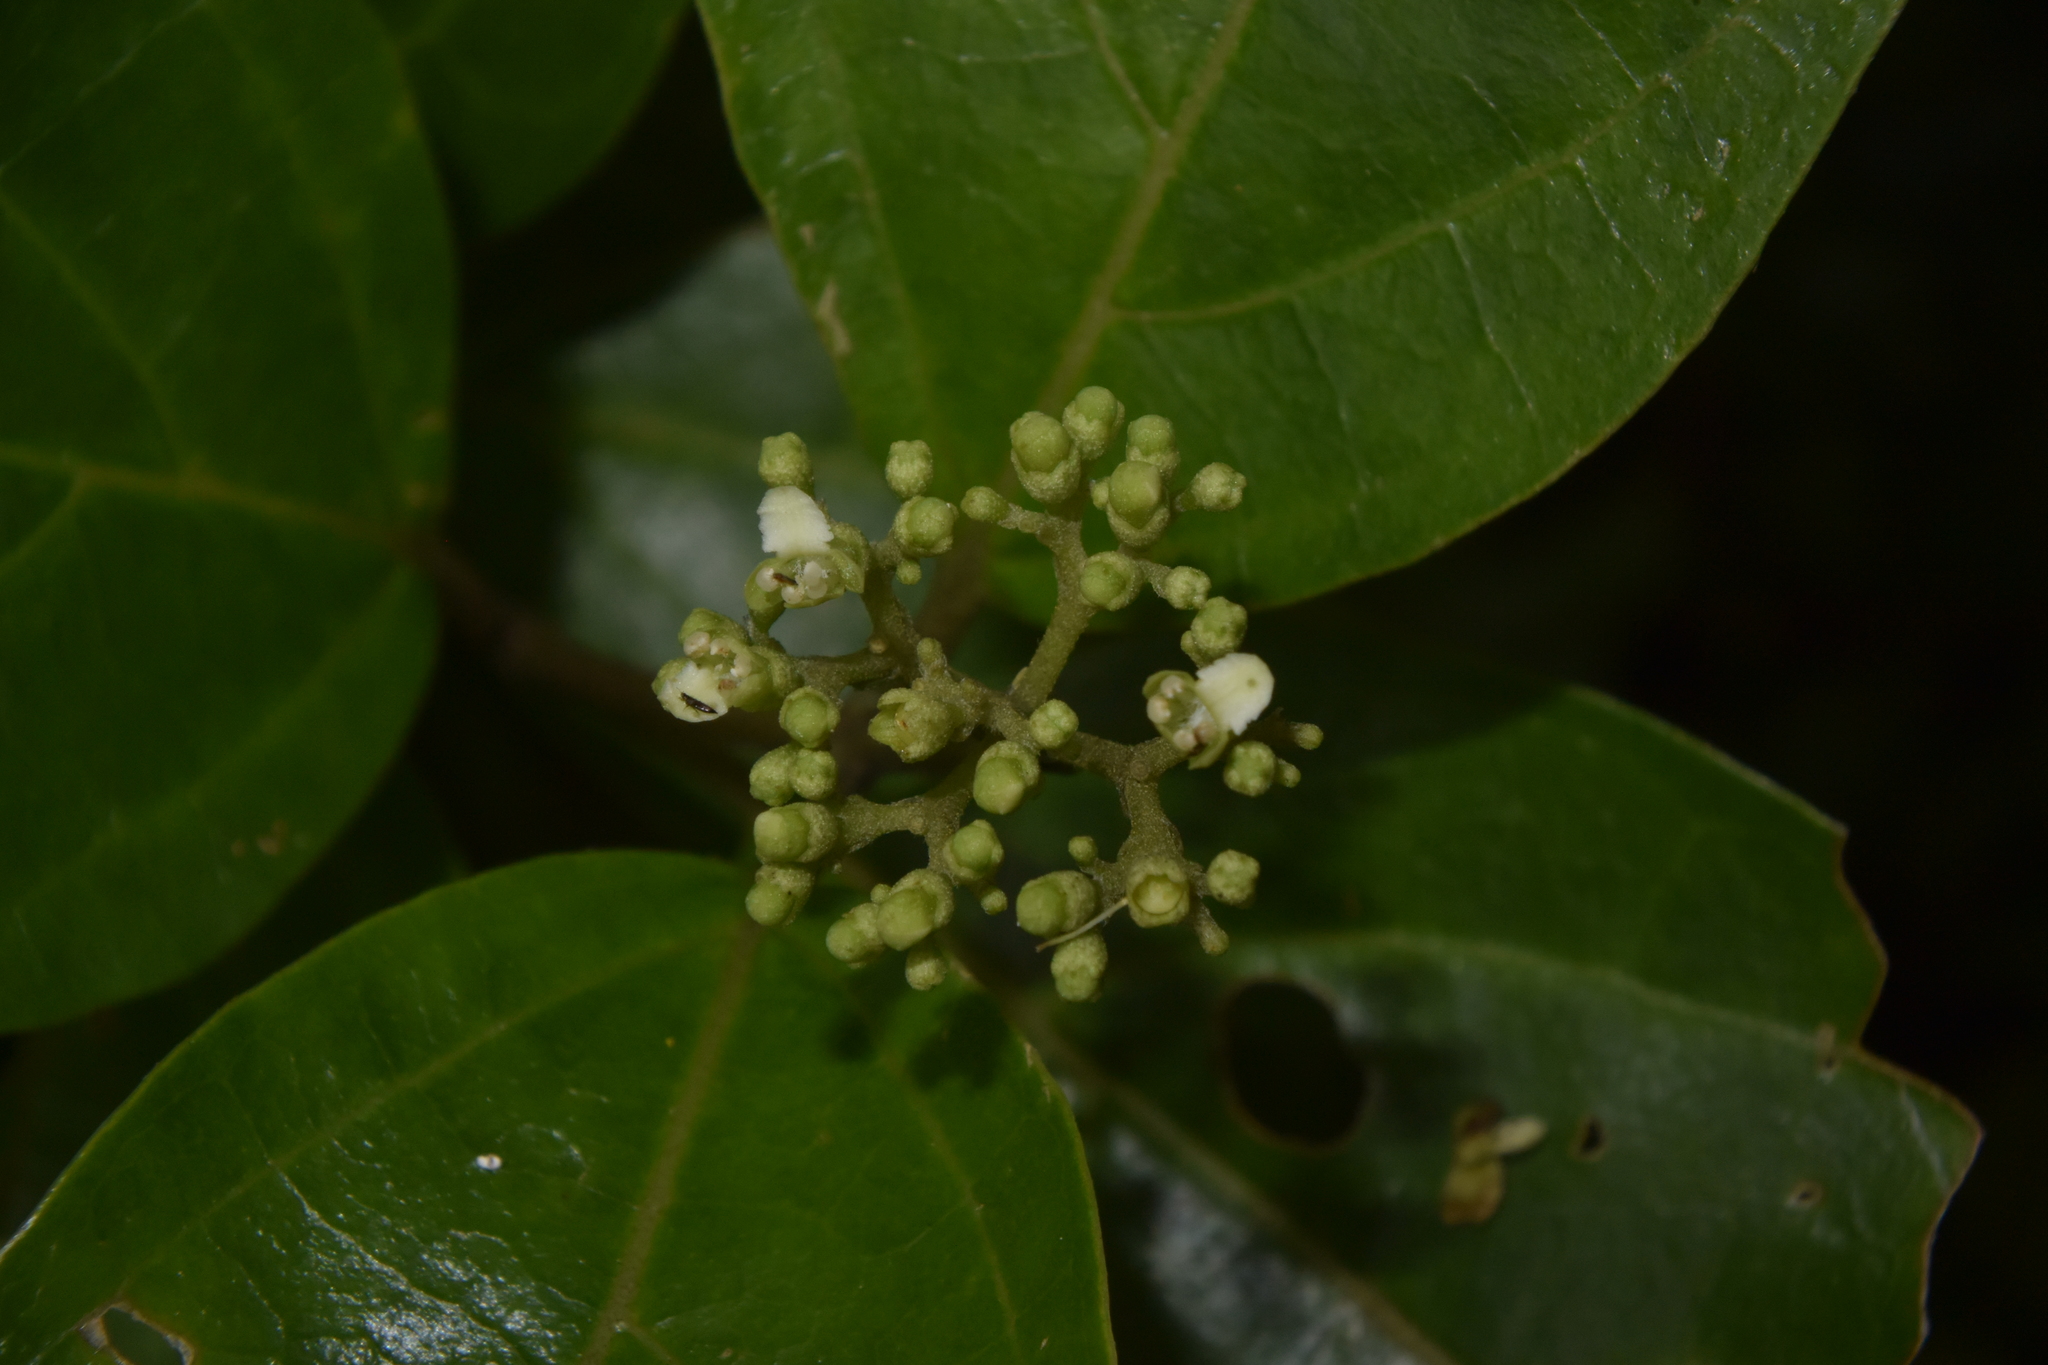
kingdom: Plantae
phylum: Tracheophyta
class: Magnoliopsida
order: Lamiales
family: Lamiaceae
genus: Premna
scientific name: Premna corymbosa
